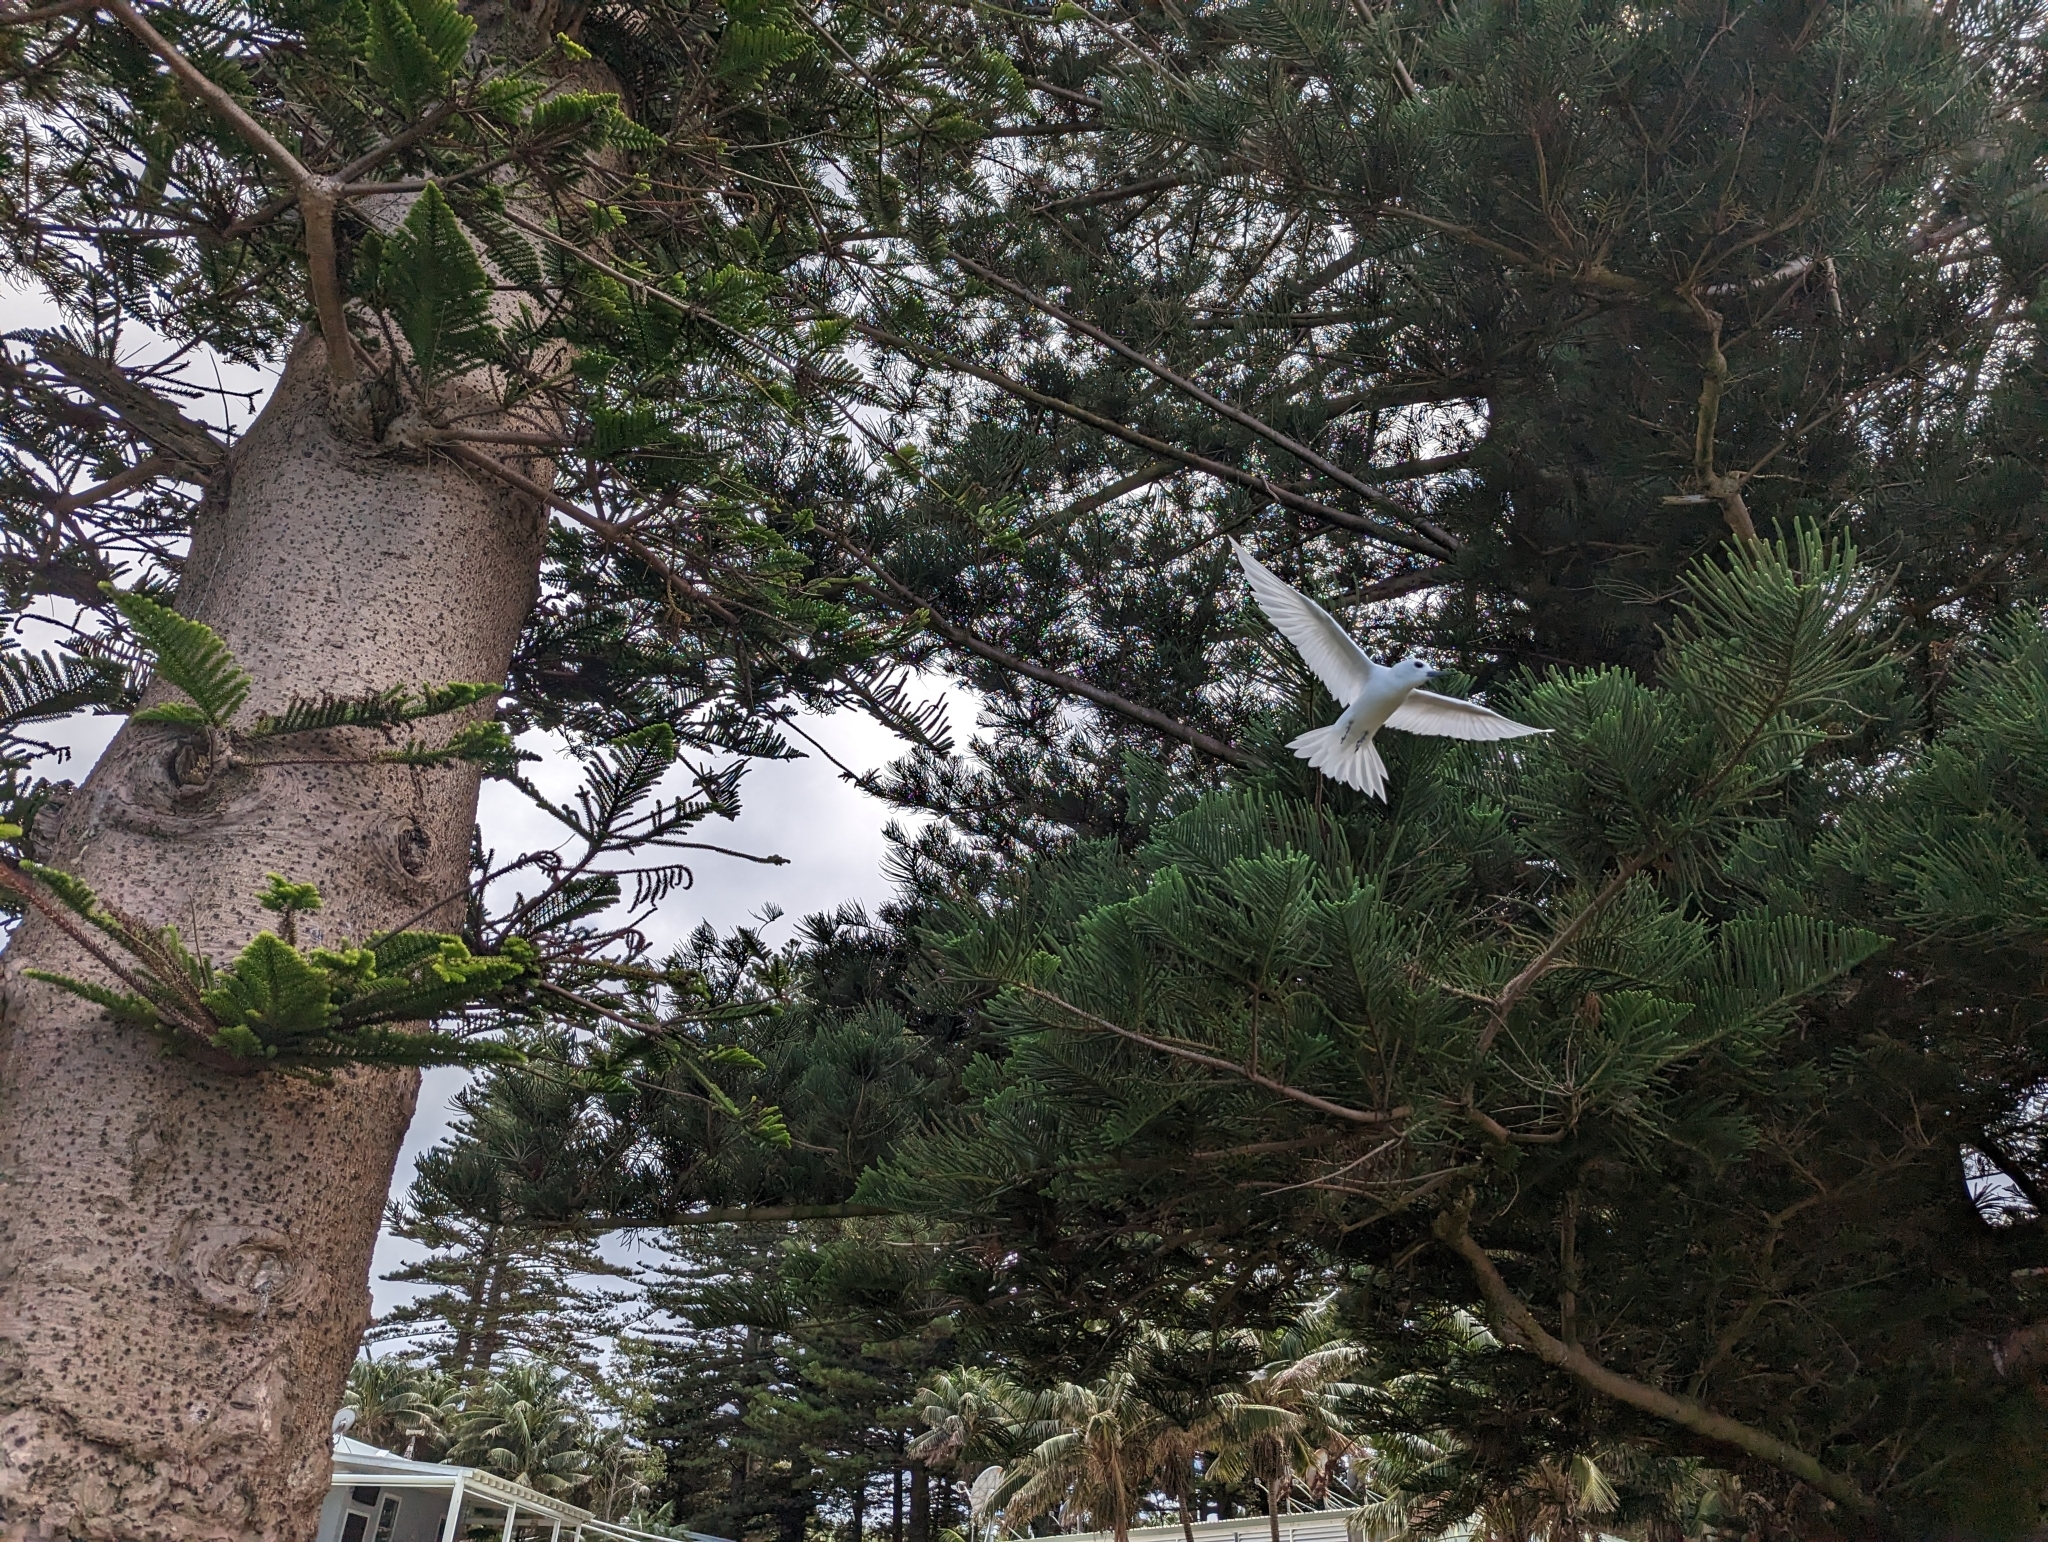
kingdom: Animalia
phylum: Chordata
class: Aves
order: Charadriiformes
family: Laridae
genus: Gygis
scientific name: Gygis alba
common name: White tern
